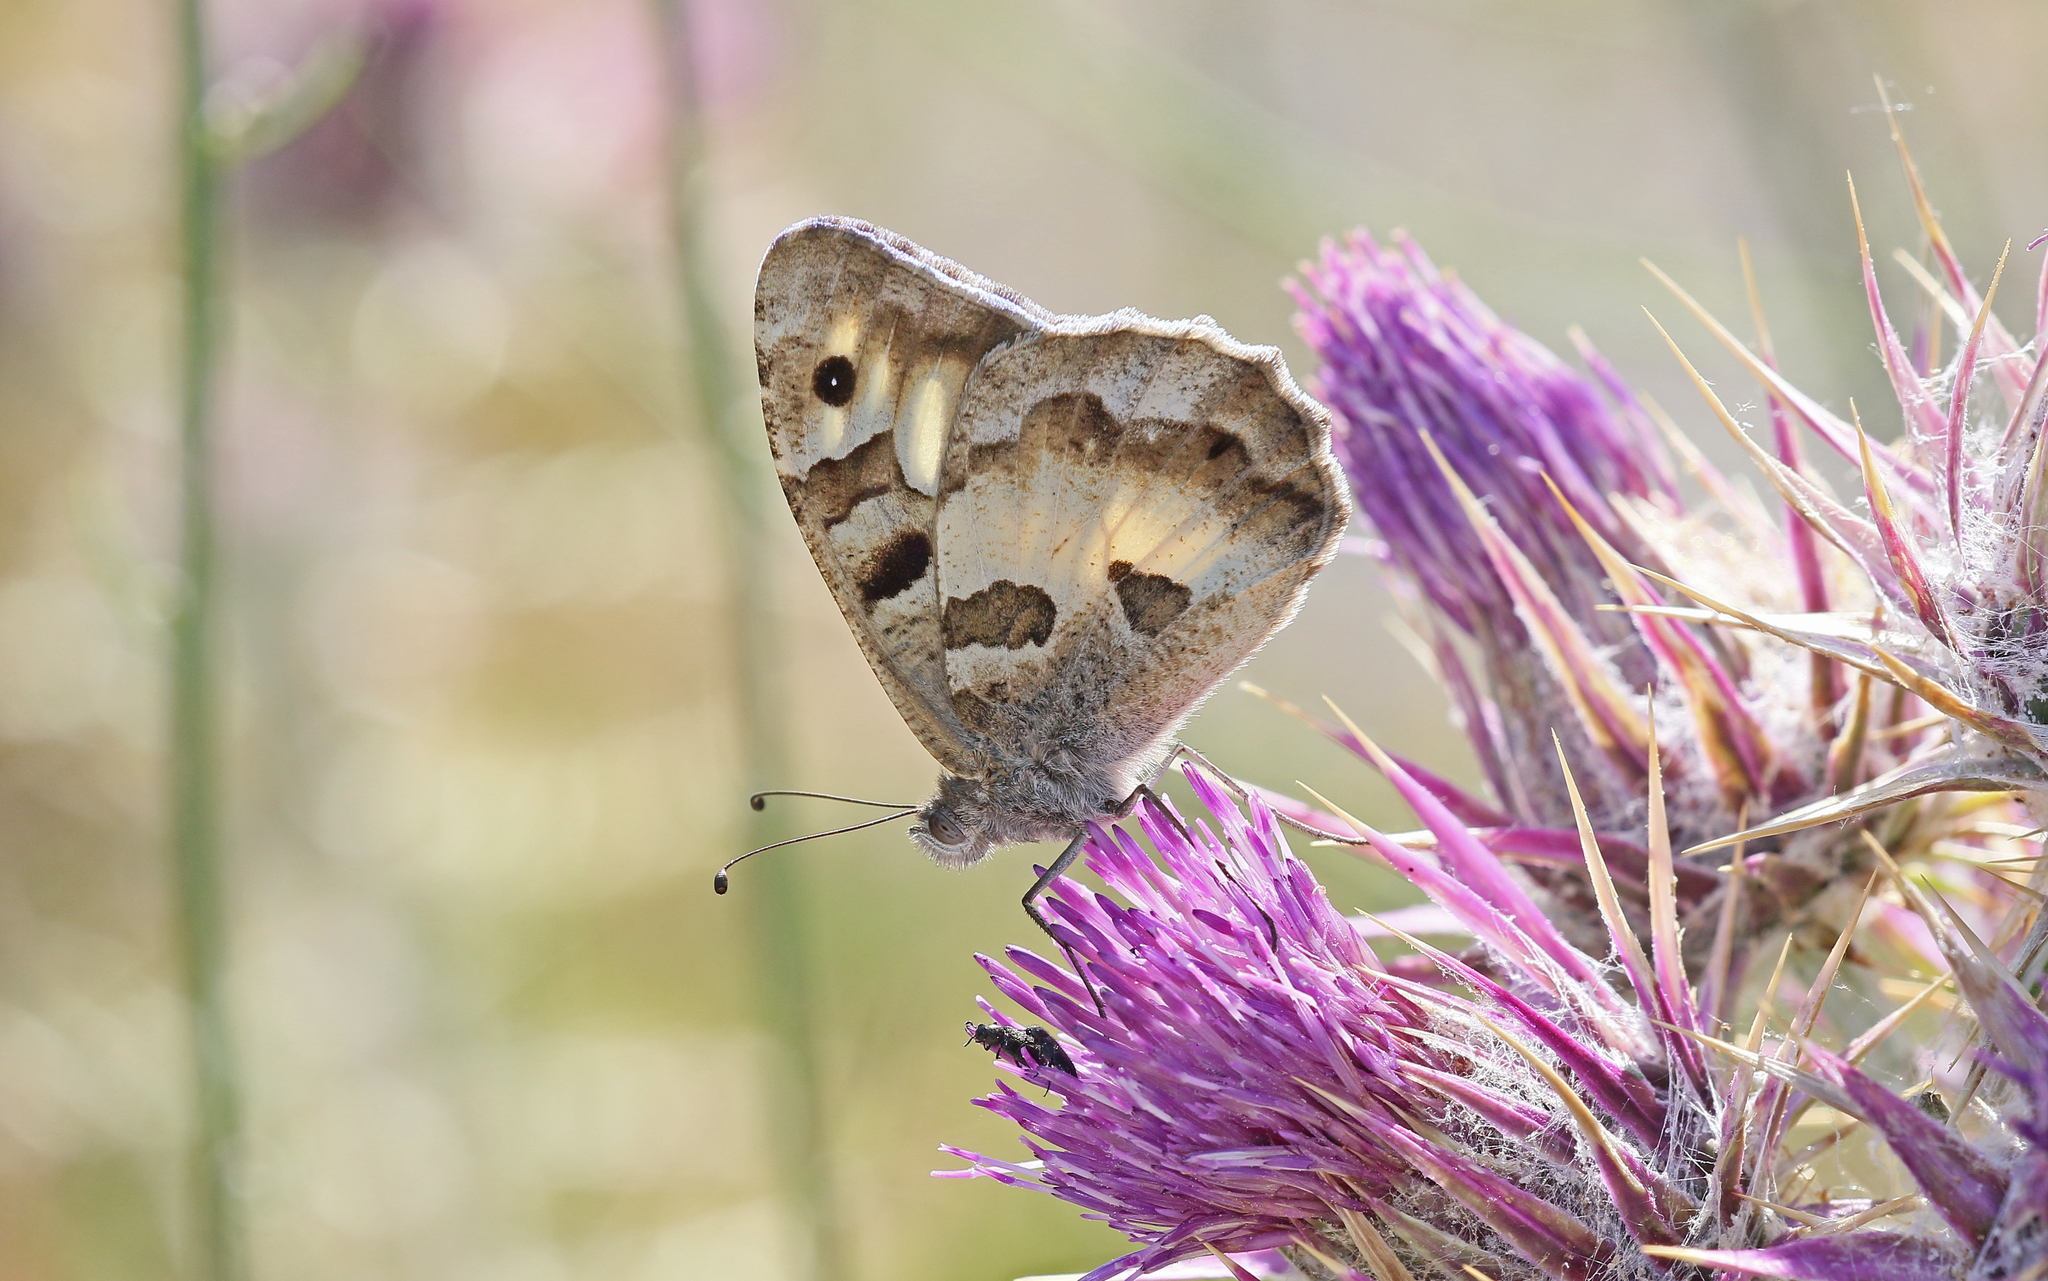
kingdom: Animalia
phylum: Arthropoda
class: Insecta
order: Lepidoptera
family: Nymphalidae
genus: Satyrus
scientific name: Satyrus briseis
